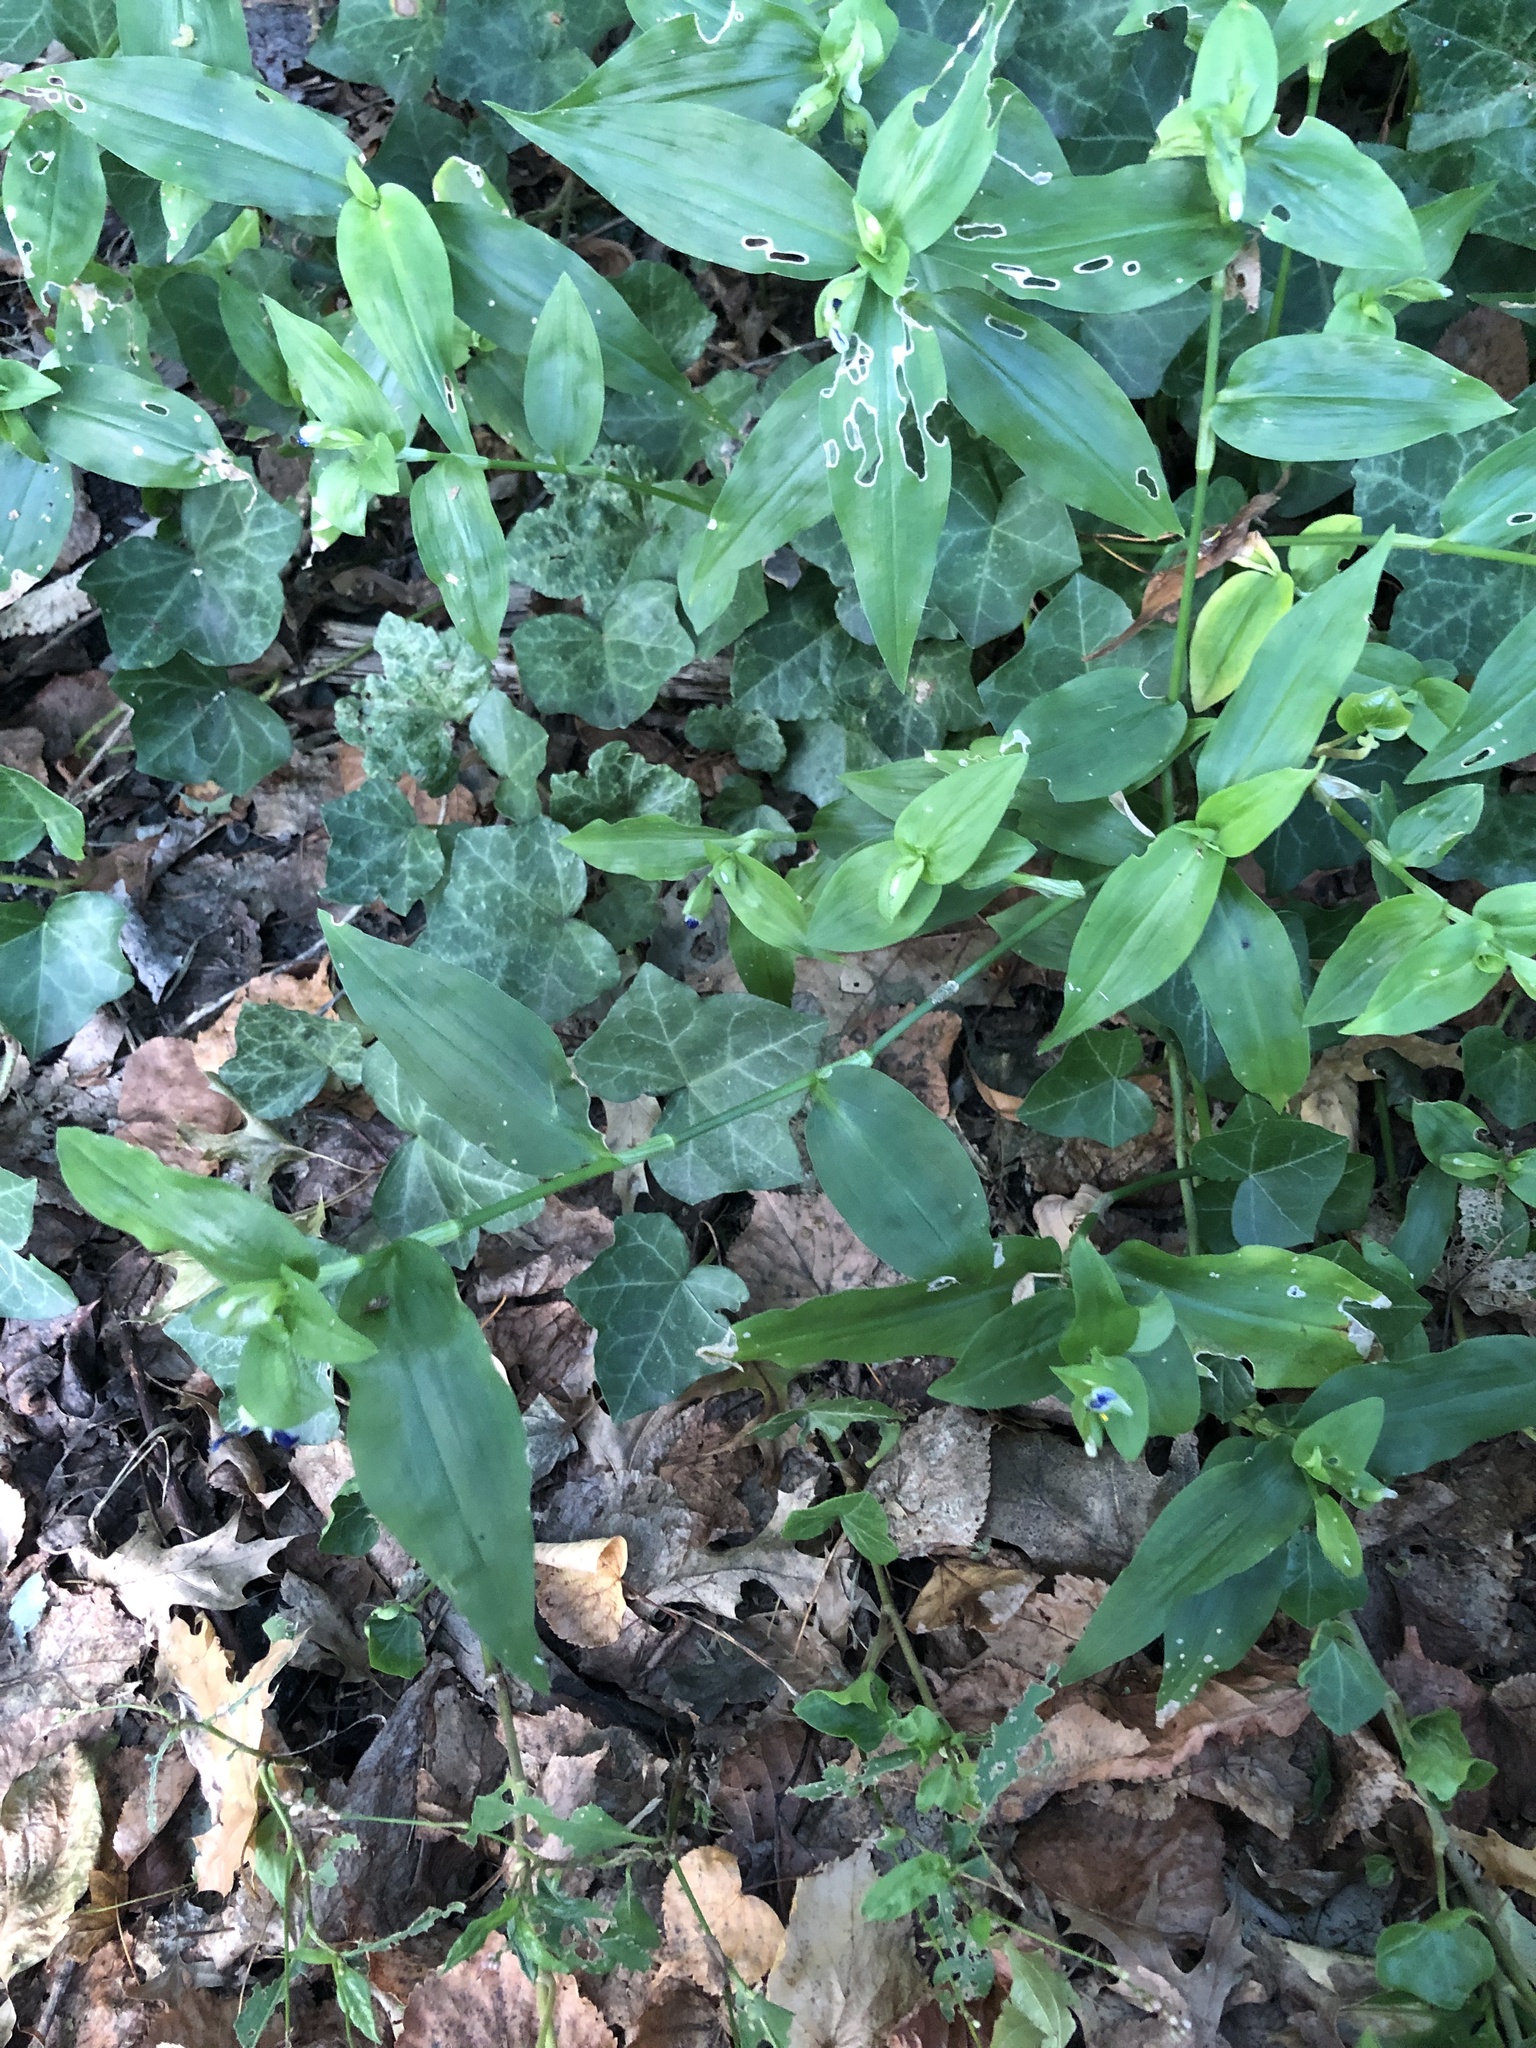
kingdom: Plantae
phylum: Tracheophyta
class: Liliopsida
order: Commelinales
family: Commelinaceae
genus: Commelina
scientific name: Commelina communis
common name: Asiatic dayflower
